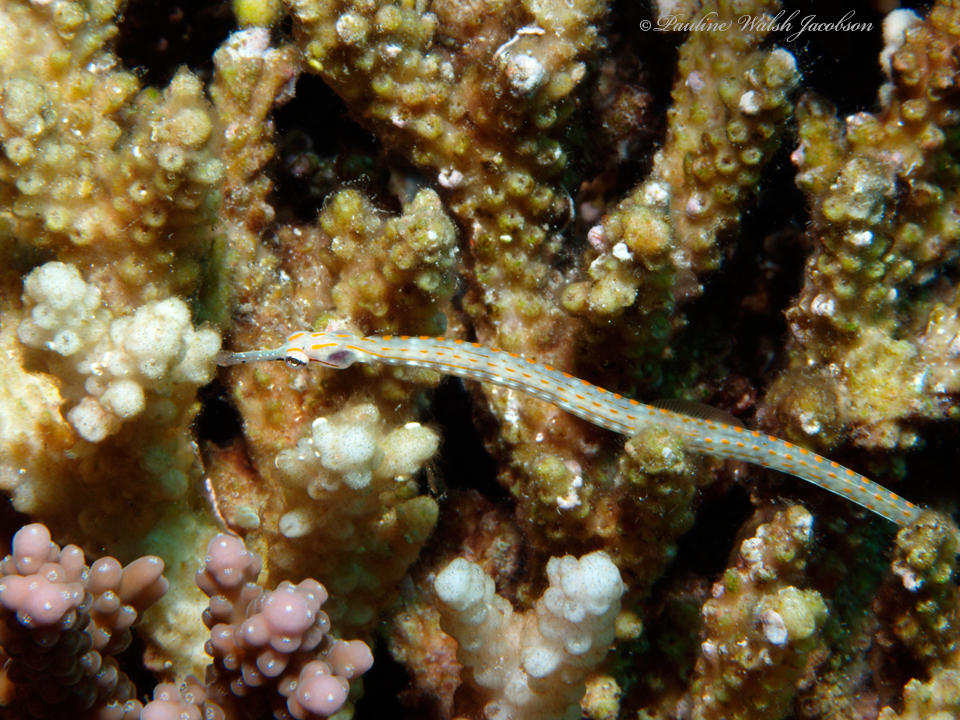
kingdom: Animalia
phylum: Chordata
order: Syngnathiformes
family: Syngnathidae
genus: Corythoichthys
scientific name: Corythoichthys schultzi
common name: Guilded pipefish
